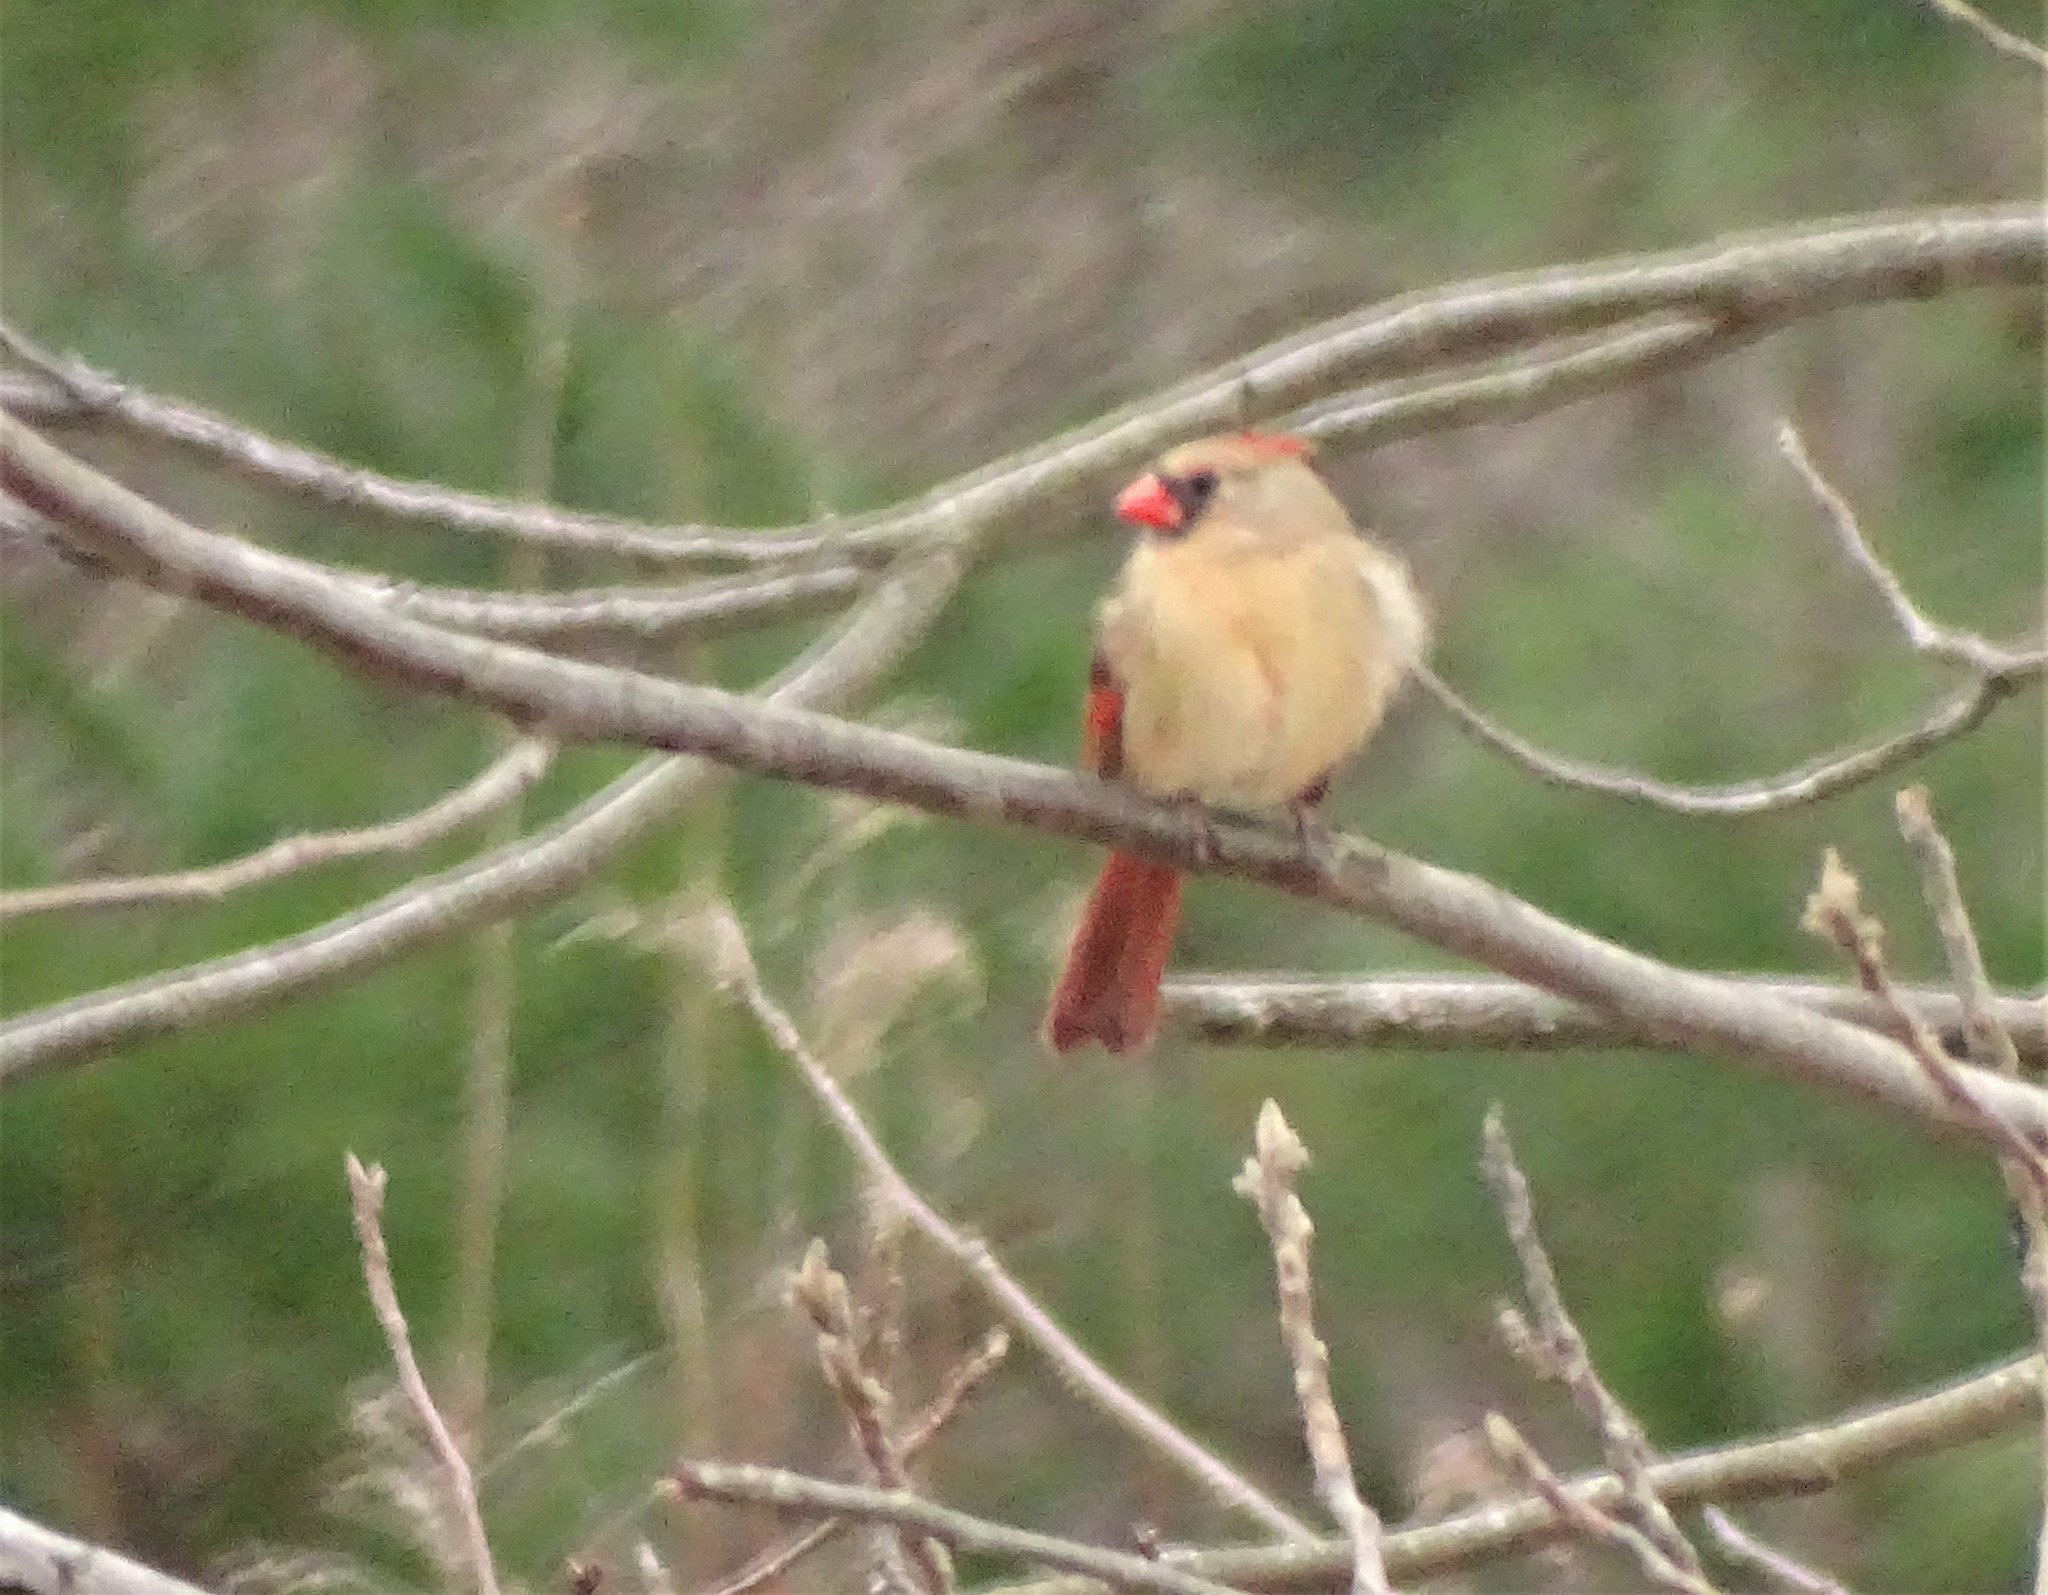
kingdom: Animalia
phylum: Chordata
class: Aves
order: Passeriformes
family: Cardinalidae
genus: Cardinalis
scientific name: Cardinalis cardinalis
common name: Northern cardinal
